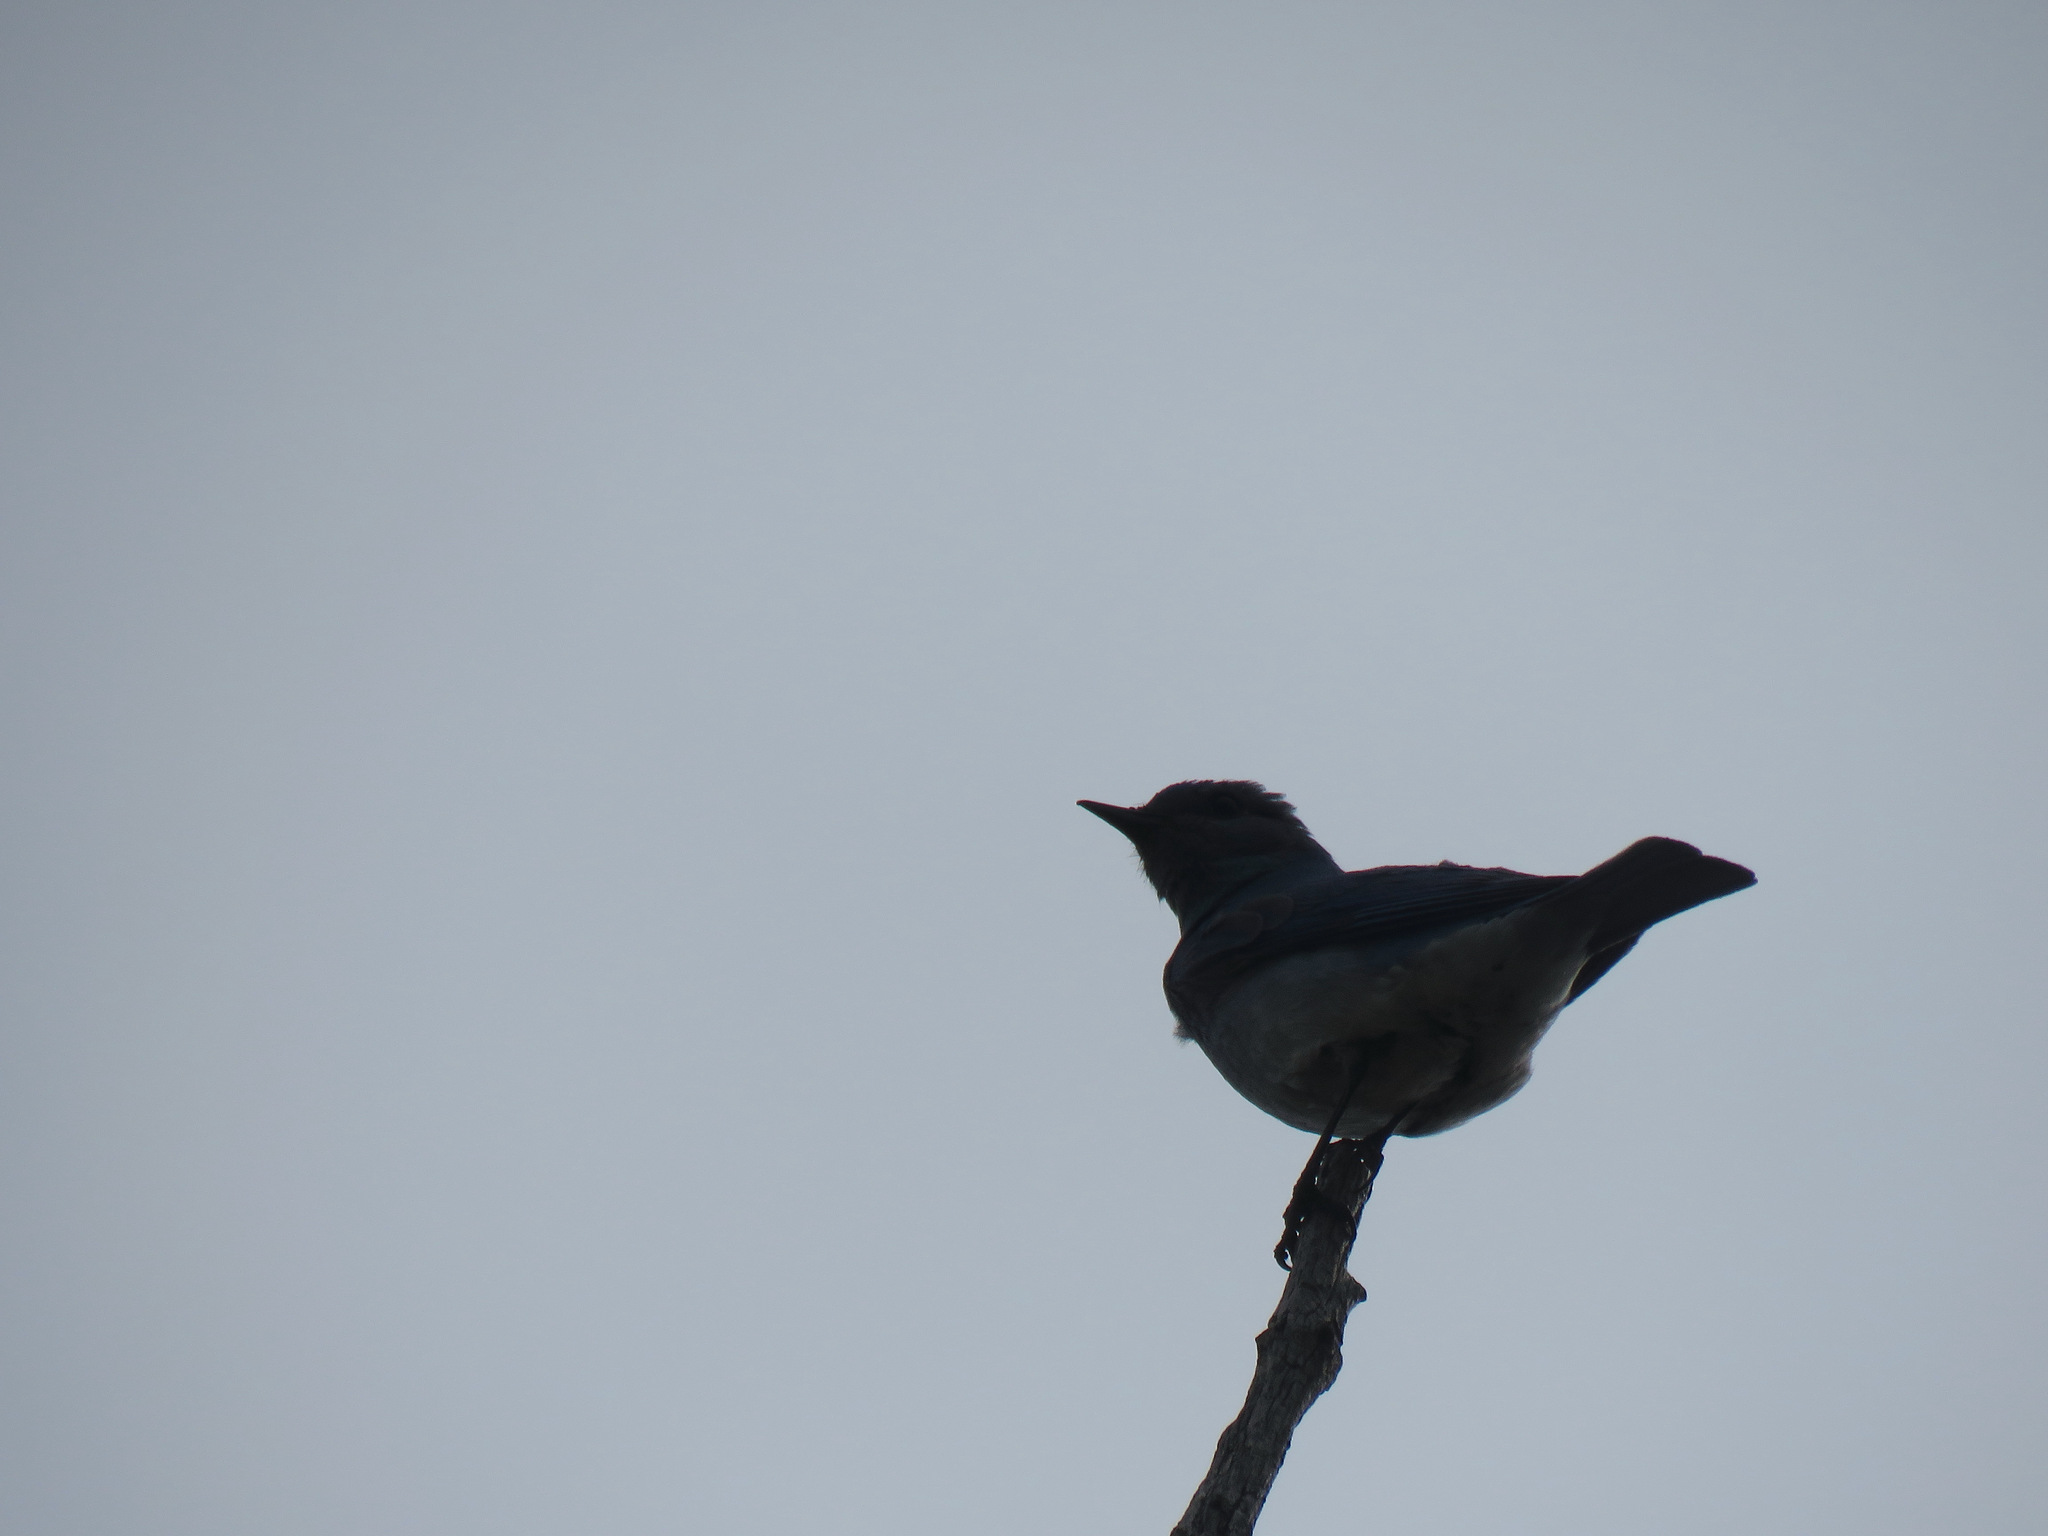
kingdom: Animalia
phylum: Chordata
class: Aves
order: Passeriformes
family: Turdidae
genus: Sialia
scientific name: Sialia currucoides
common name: Mountain bluebird
